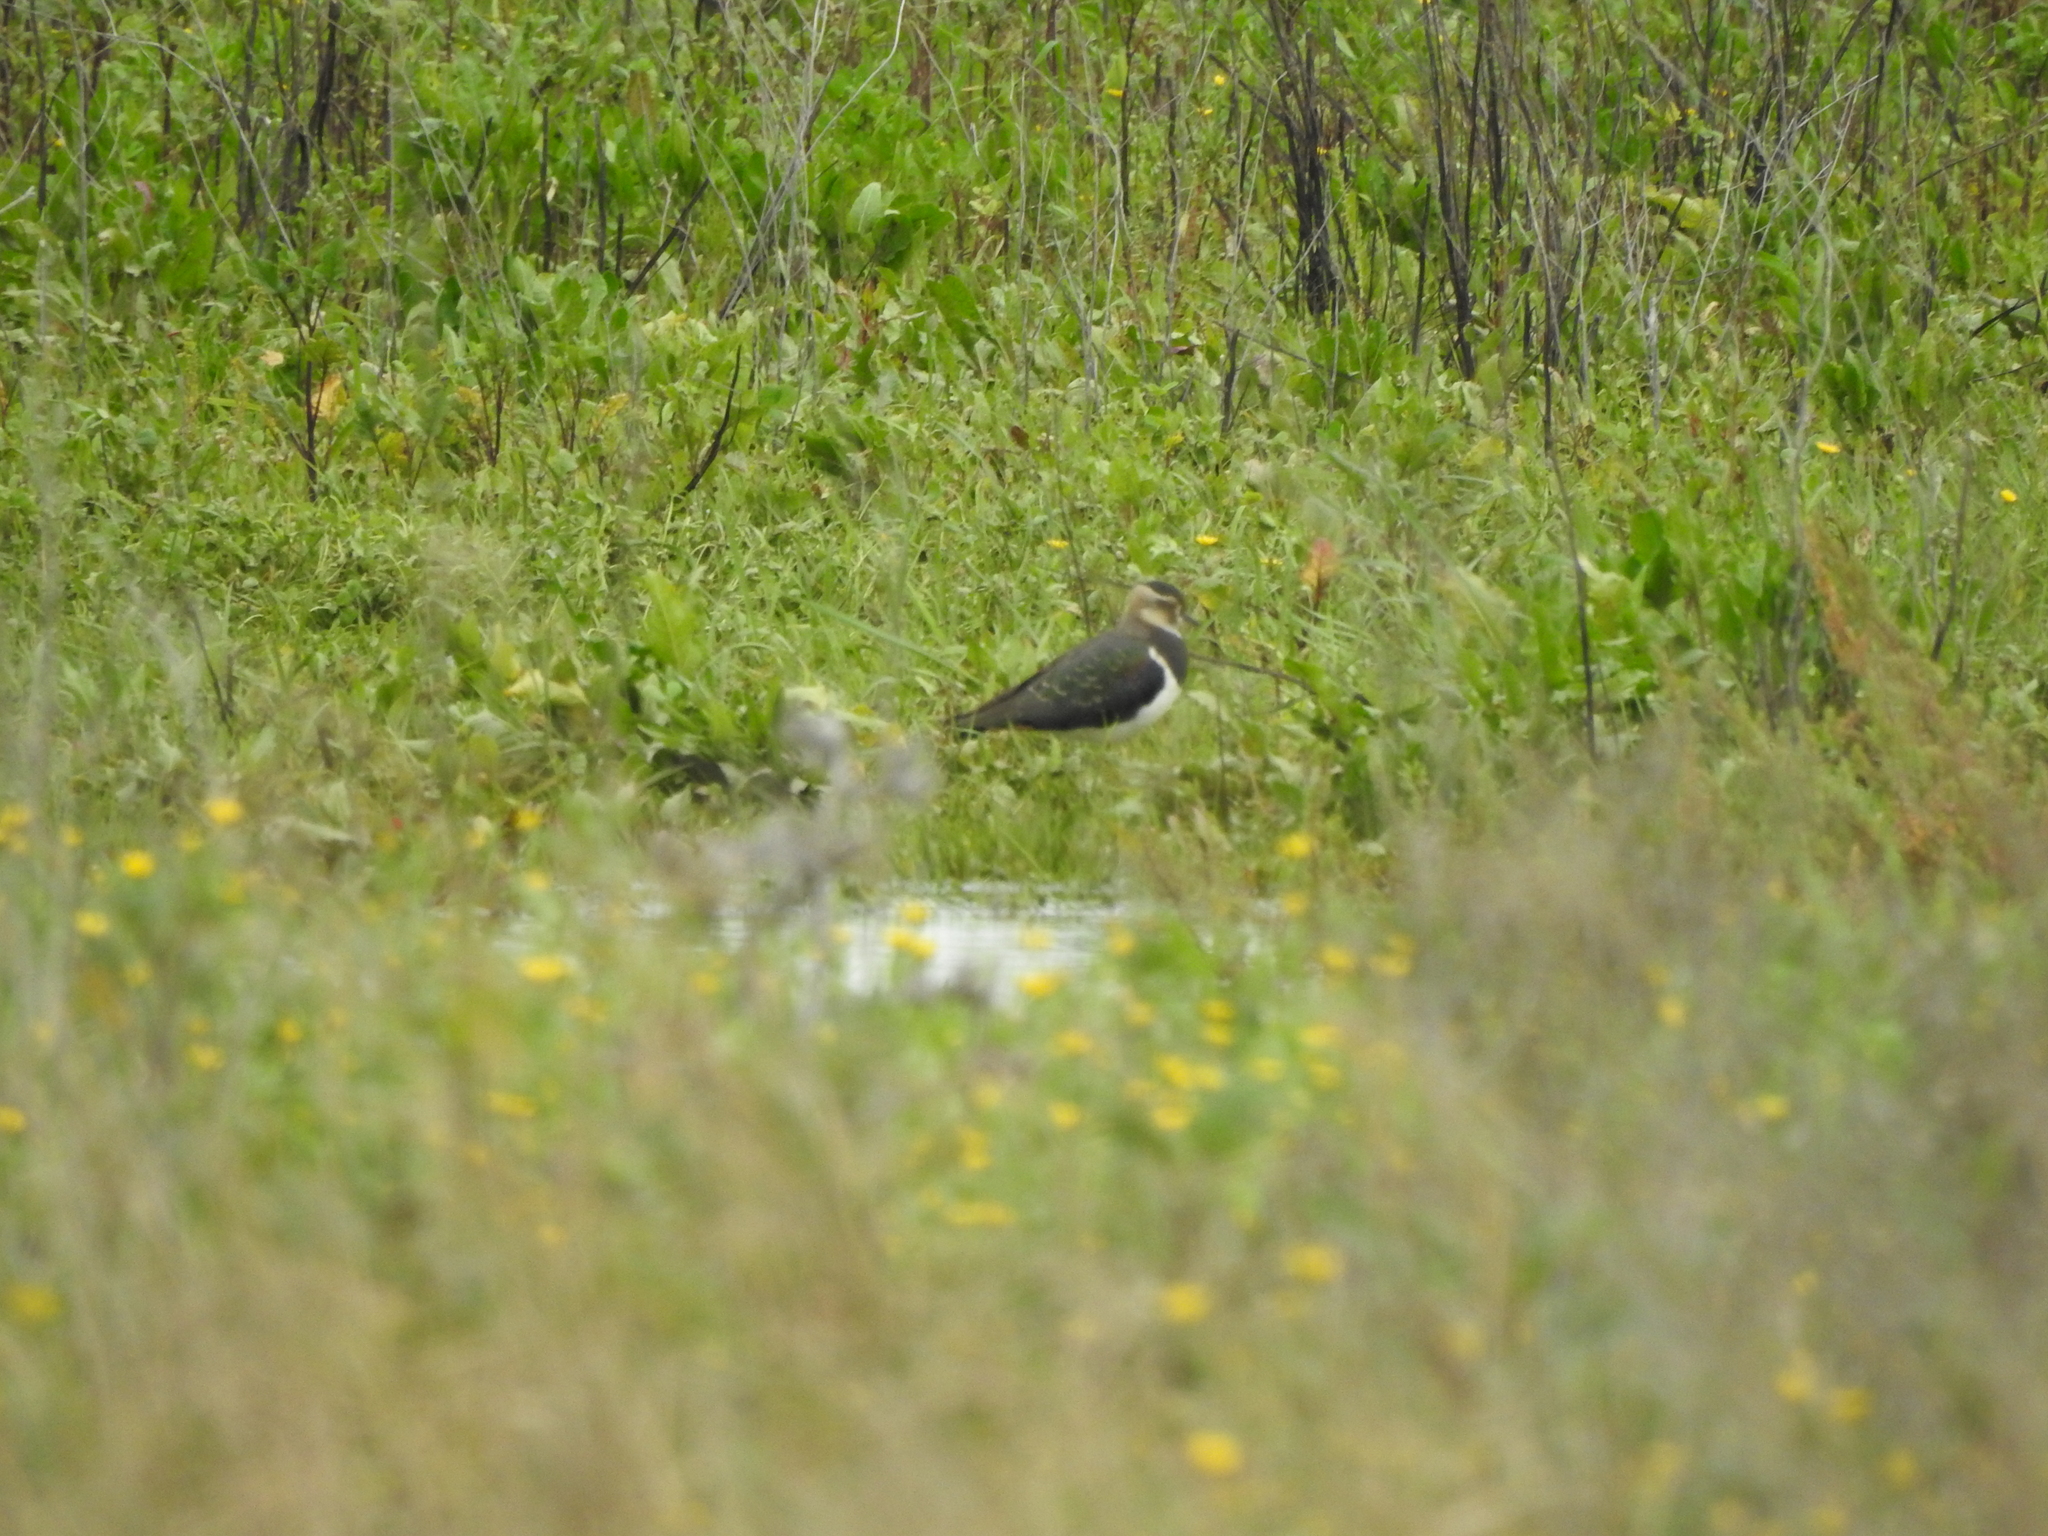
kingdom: Animalia
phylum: Chordata
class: Aves
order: Charadriiformes
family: Charadriidae
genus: Vanellus
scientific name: Vanellus vanellus
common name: Northern lapwing
